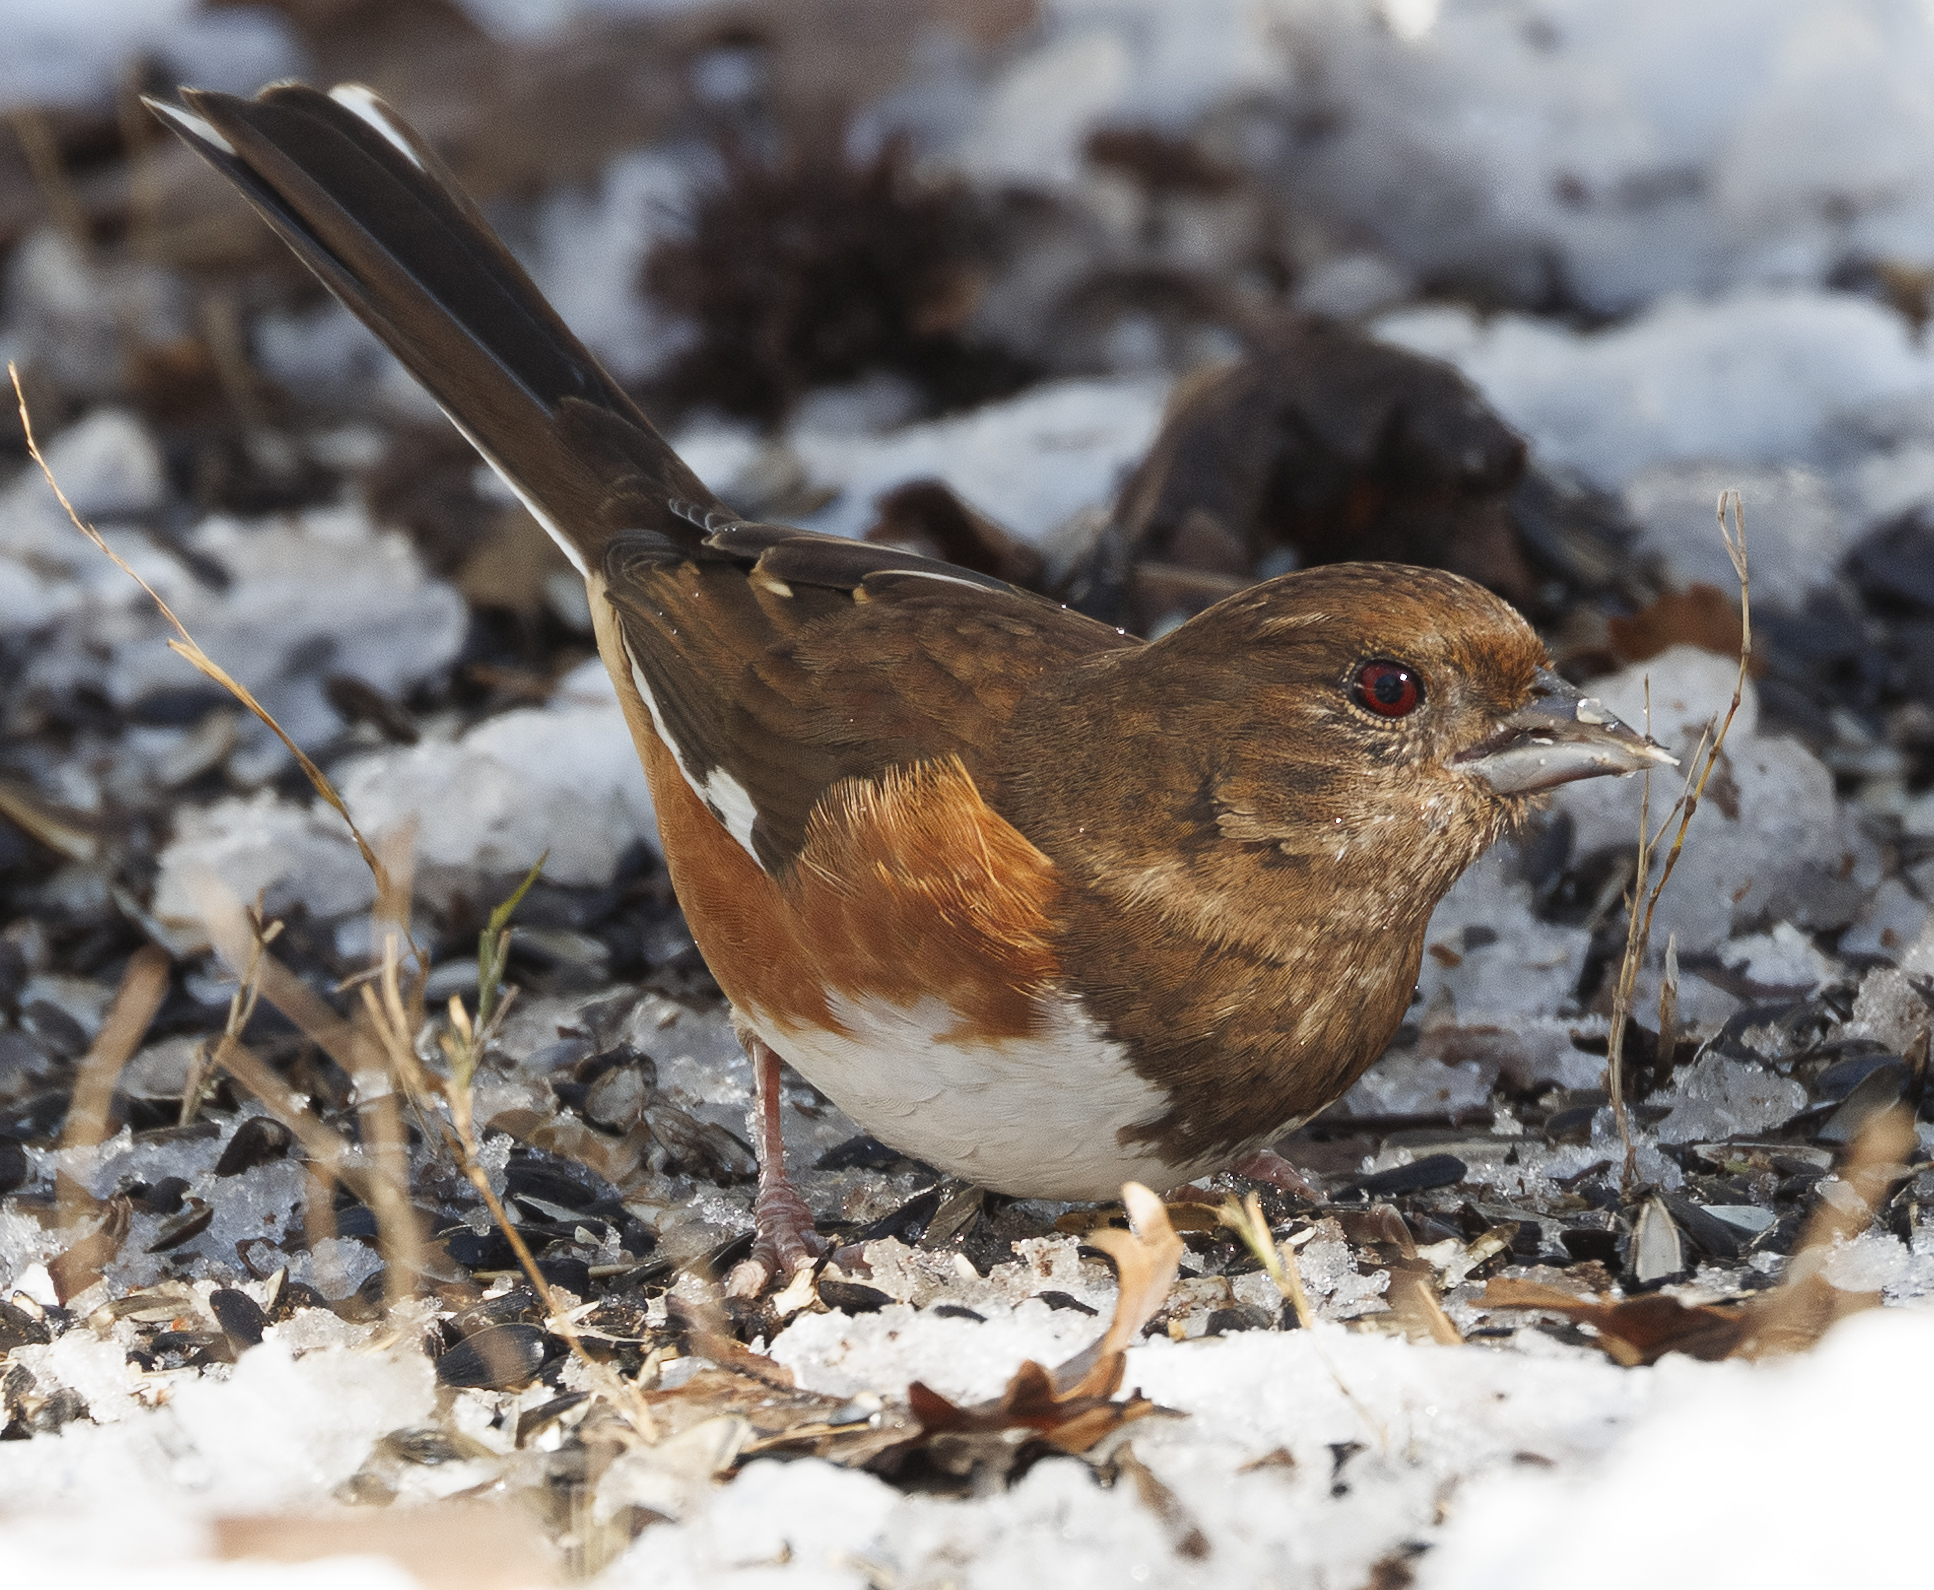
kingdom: Animalia
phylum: Chordata
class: Aves
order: Passeriformes
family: Passerellidae
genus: Pipilo
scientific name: Pipilo erythrophthalmus
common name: Eastern towhee
